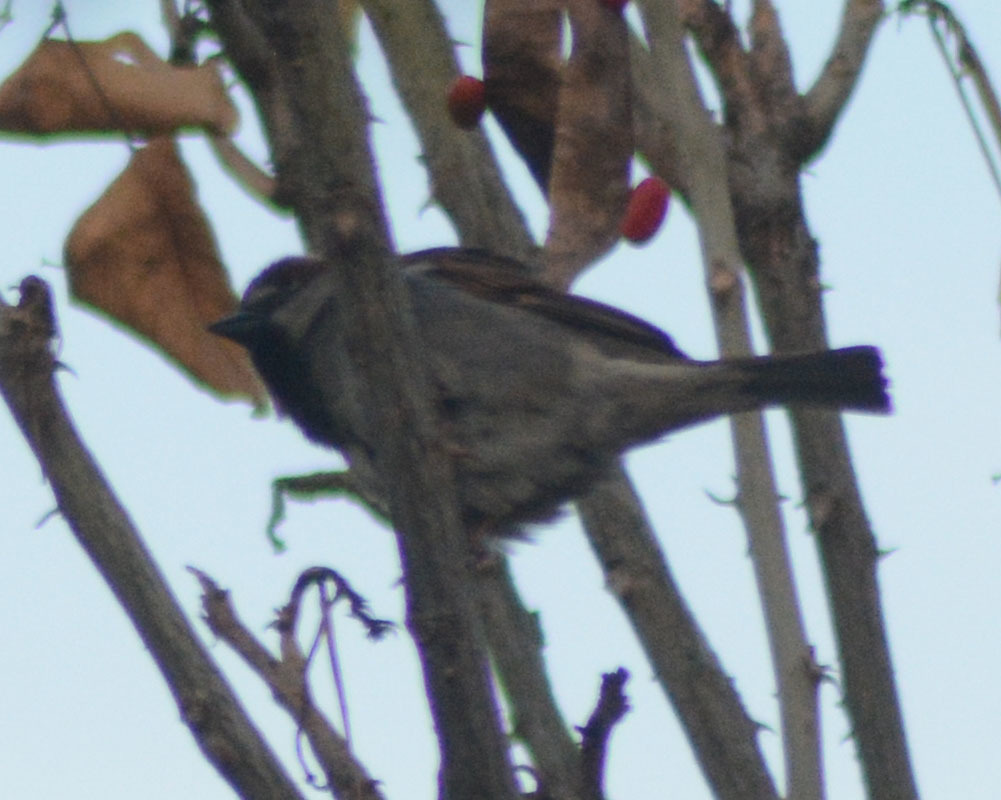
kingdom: Animalia
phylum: Chordata
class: Aves
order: Passeriformes
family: Passeridae
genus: Passer
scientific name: Passer domesticus
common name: House sparrow
